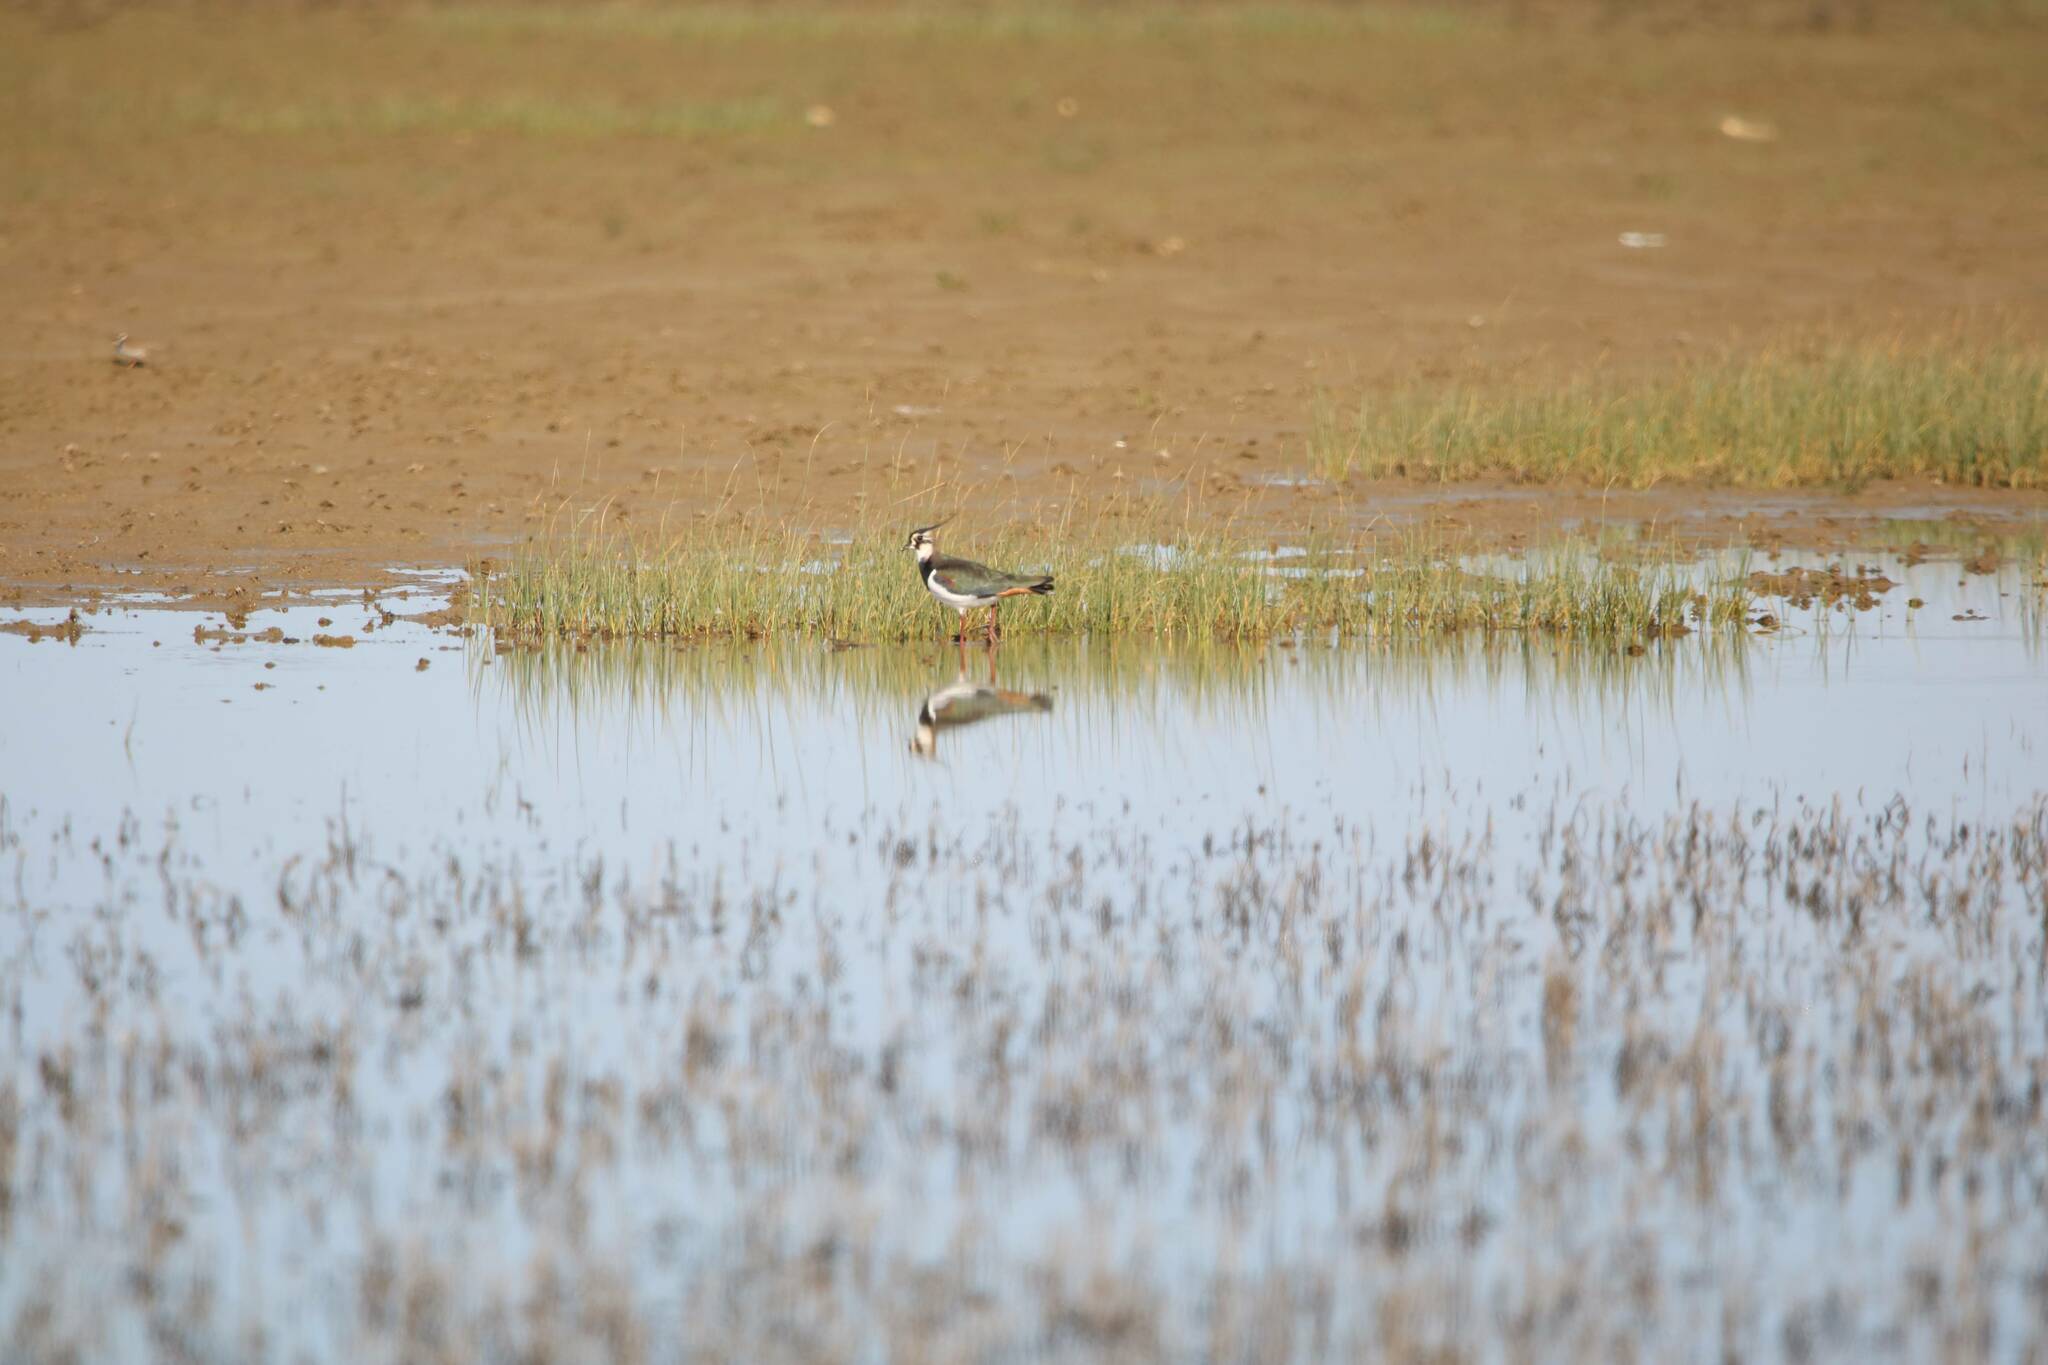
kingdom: Animalia
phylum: Chordata
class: Aves
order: Charadriiformes
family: Charadriidae
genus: Vanellus
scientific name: Vanellus vanellus
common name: Northern lapwing
